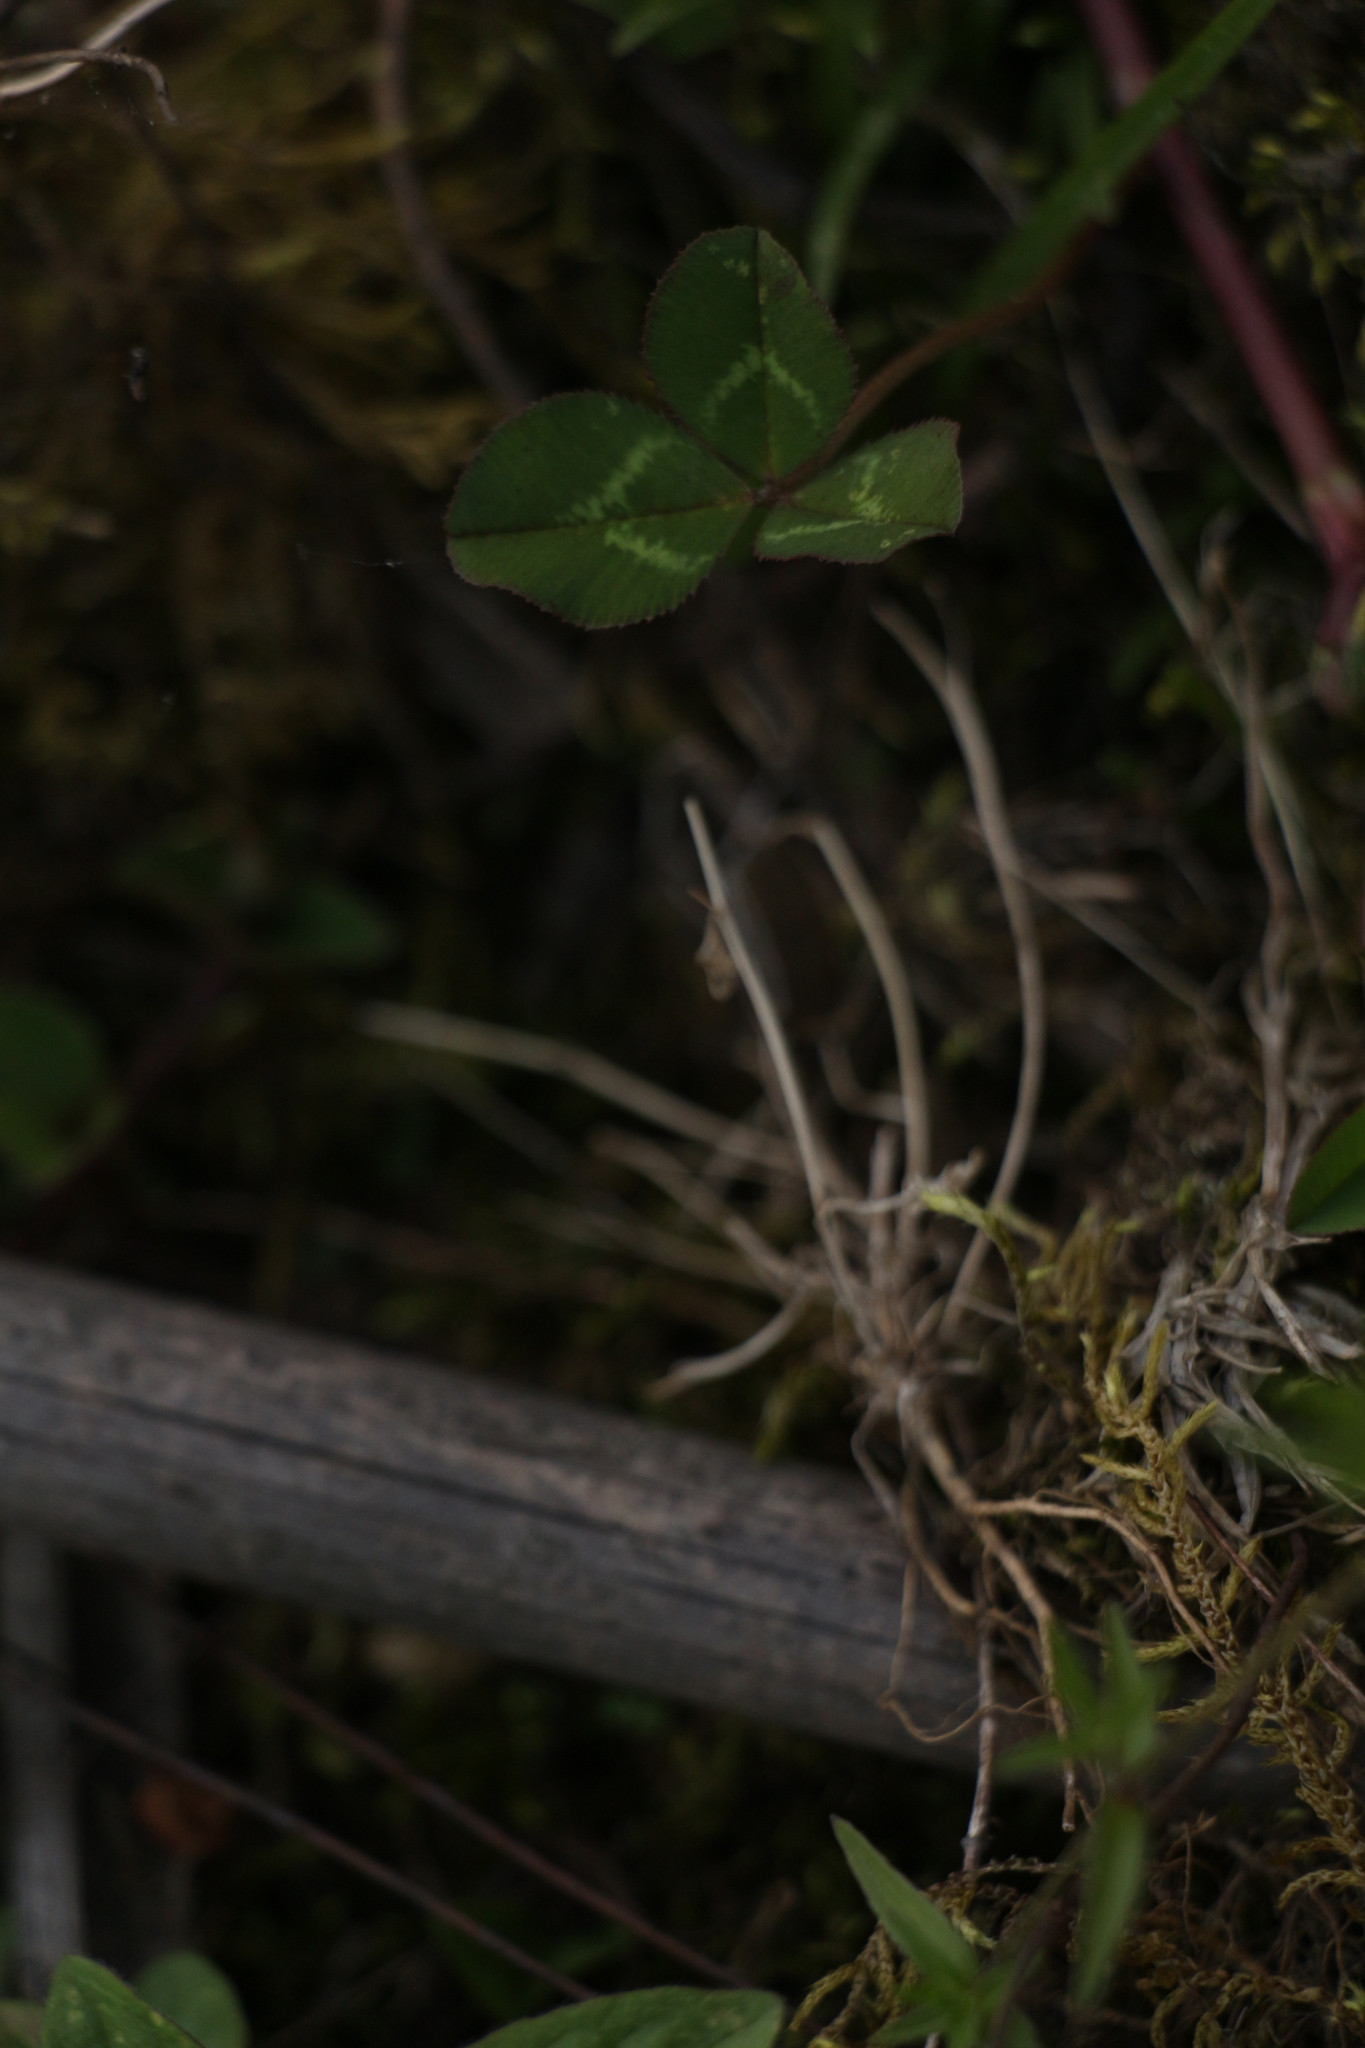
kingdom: Plantae
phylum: Tracheophyta
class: Magnoliopsida
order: Fabales
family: Fabaceae
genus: Trifolium
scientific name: Trifolium repens
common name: White clover
